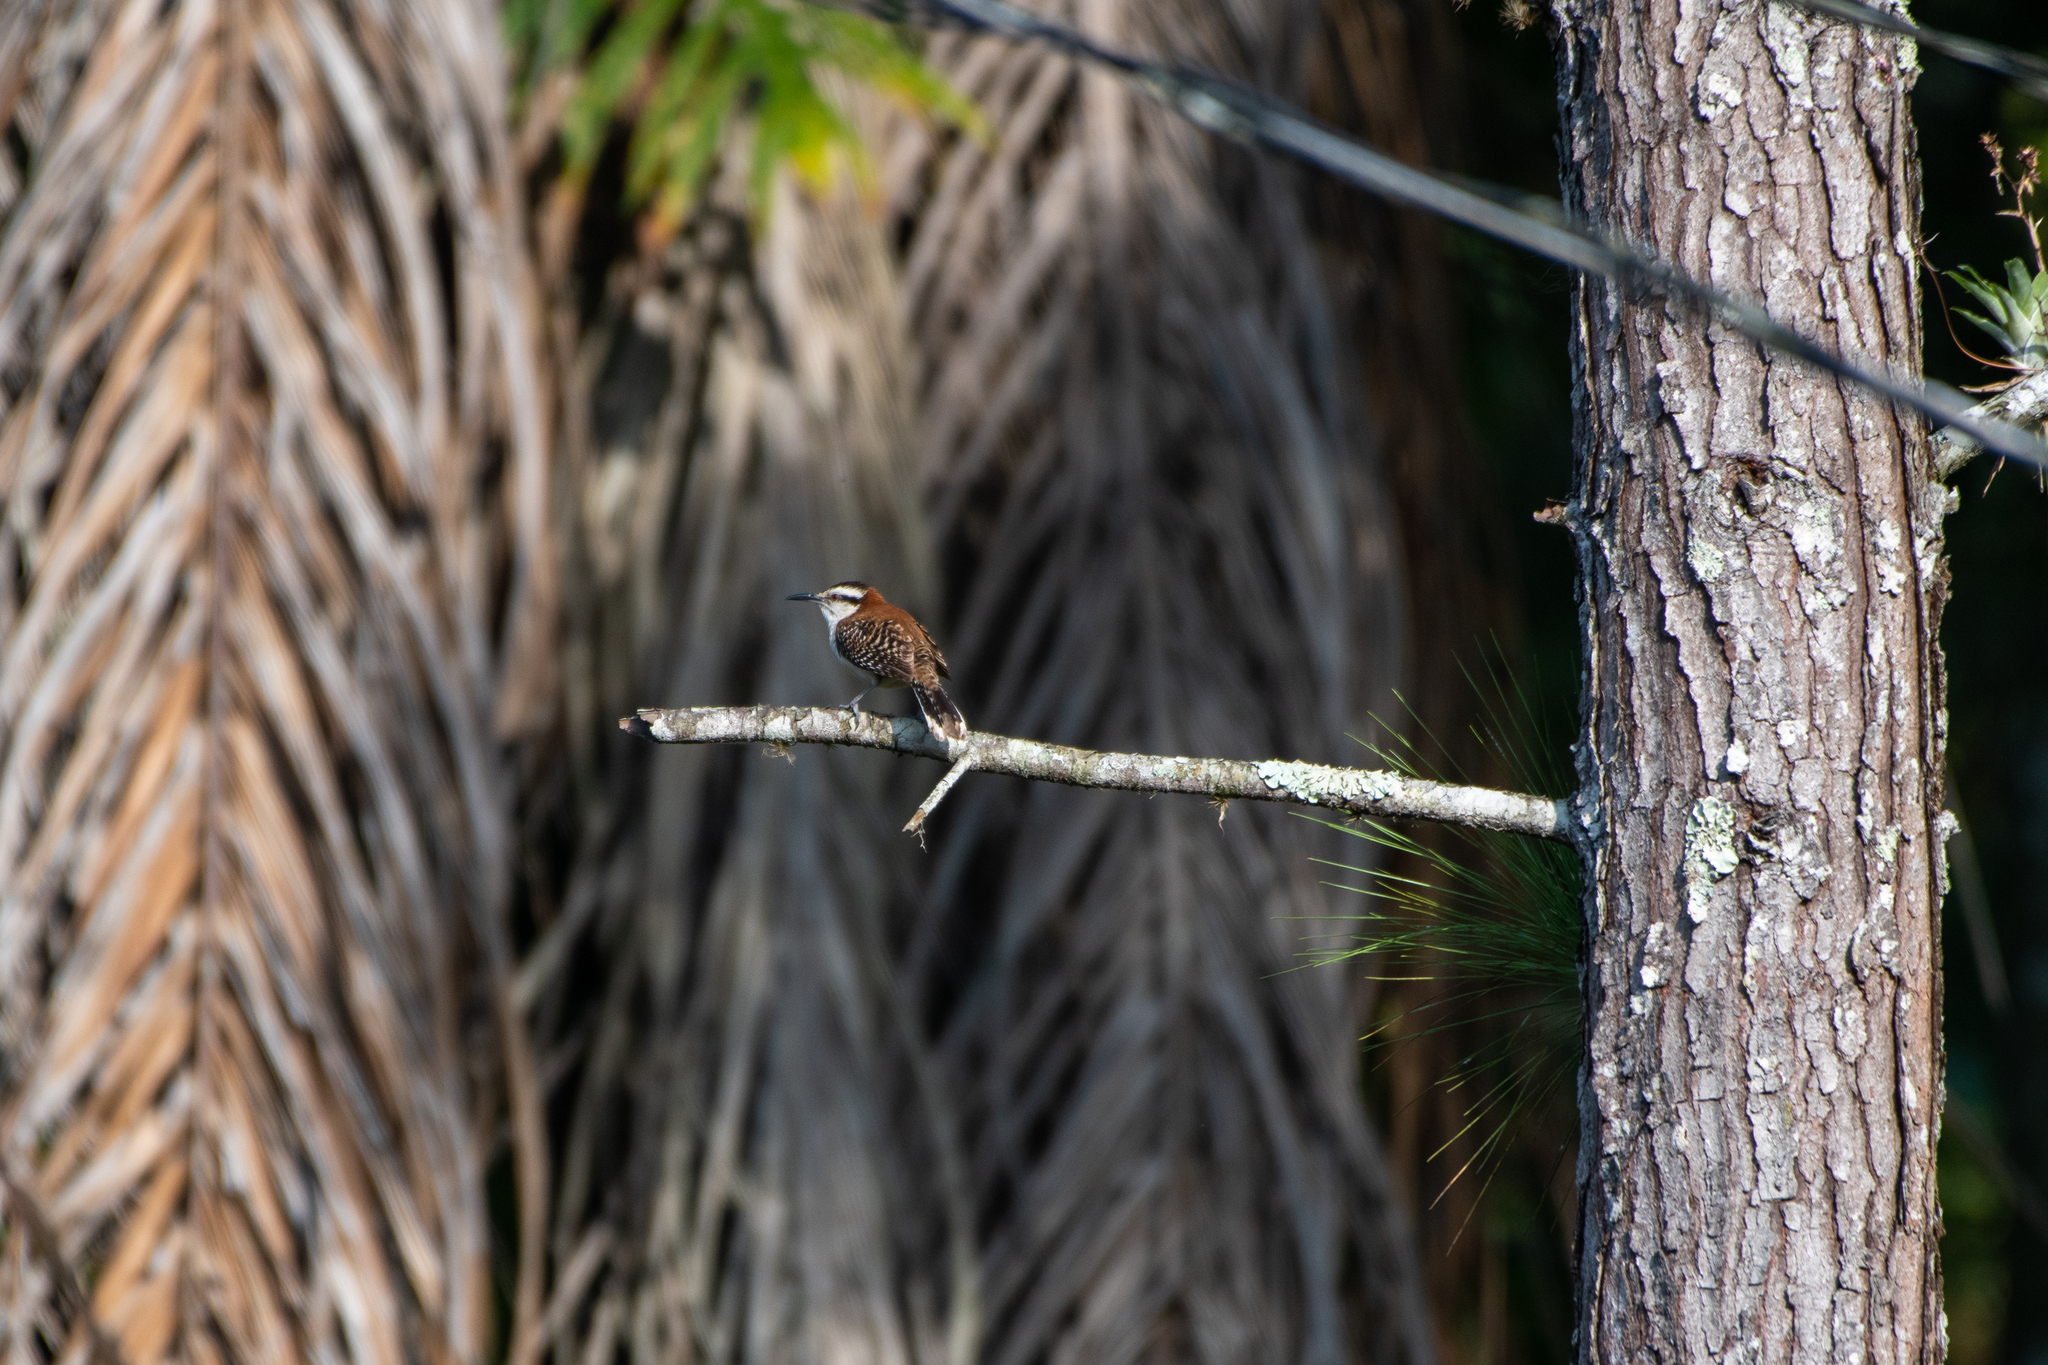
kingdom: Animalia
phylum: Chordata
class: Aves
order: Passeriformes
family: Troglodytidae
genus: Campylorhynchus
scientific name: Campylorhynchus rufinucha
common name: Rufous-naped wren
